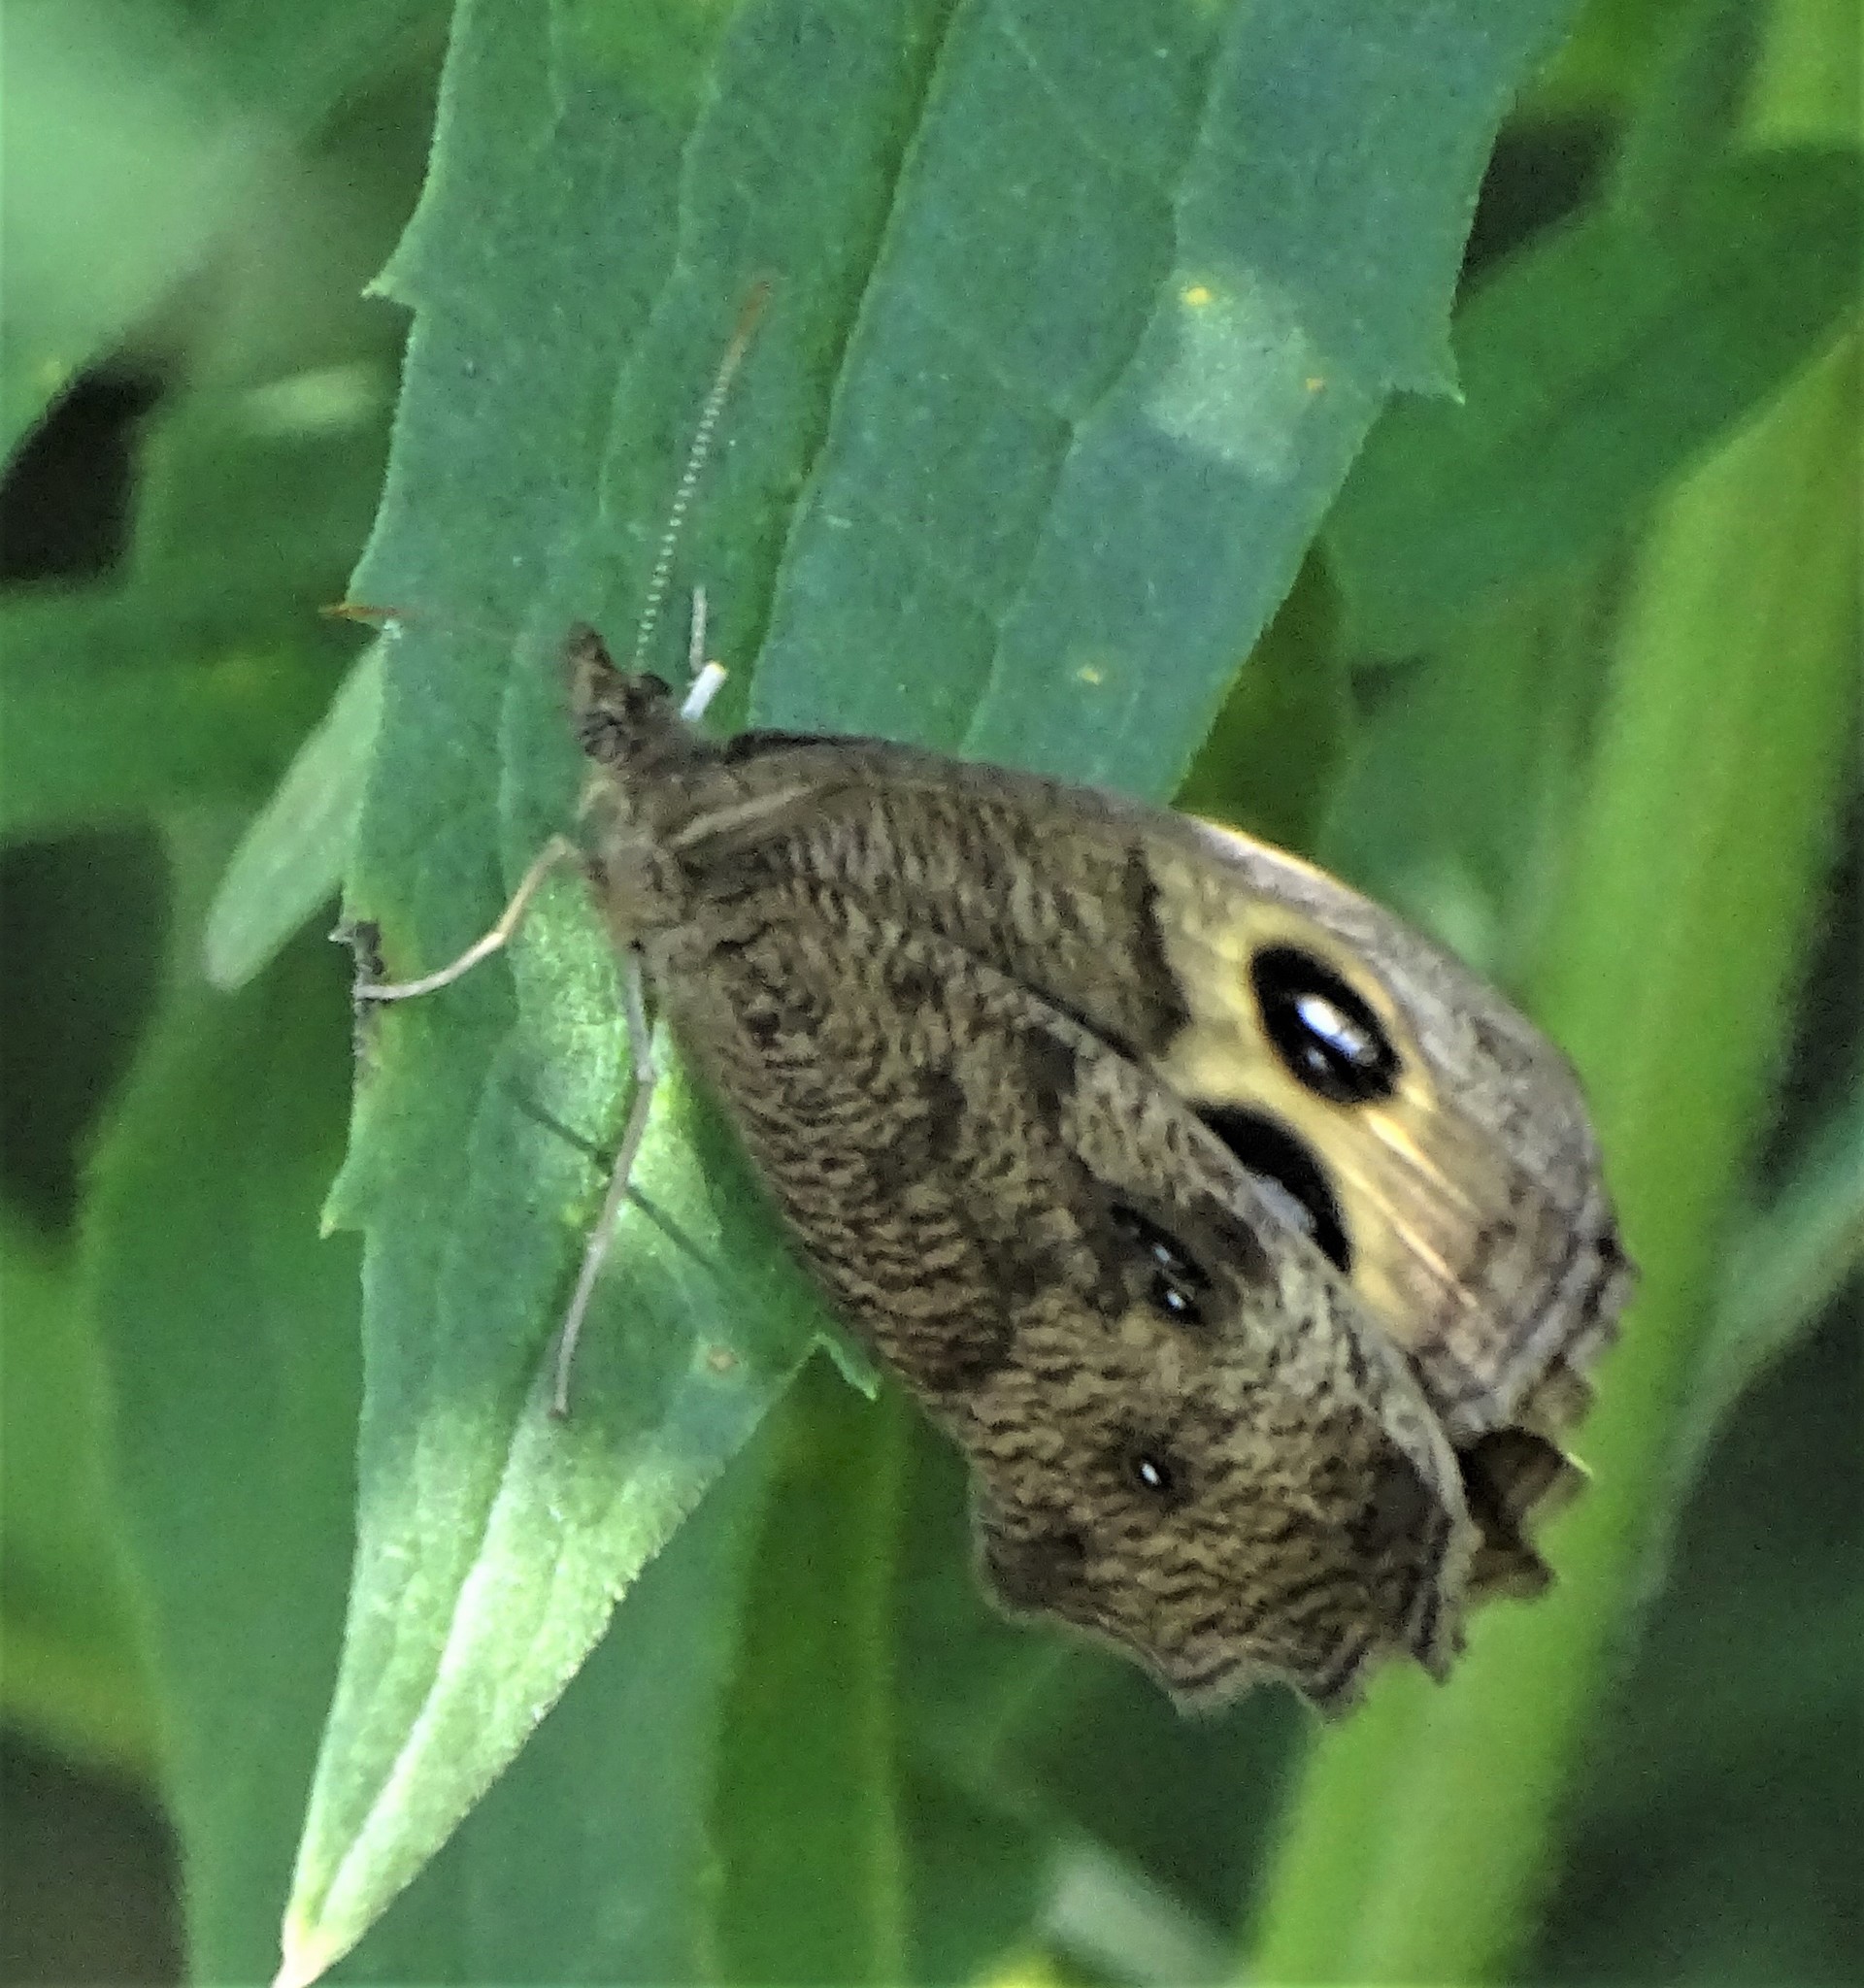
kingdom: Animalia
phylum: Arthropoda
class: Insecta
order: Lepidoptera
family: Nymphalidae
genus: Cercyonis
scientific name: Cercyonis pegala
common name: Common wood-nymph
